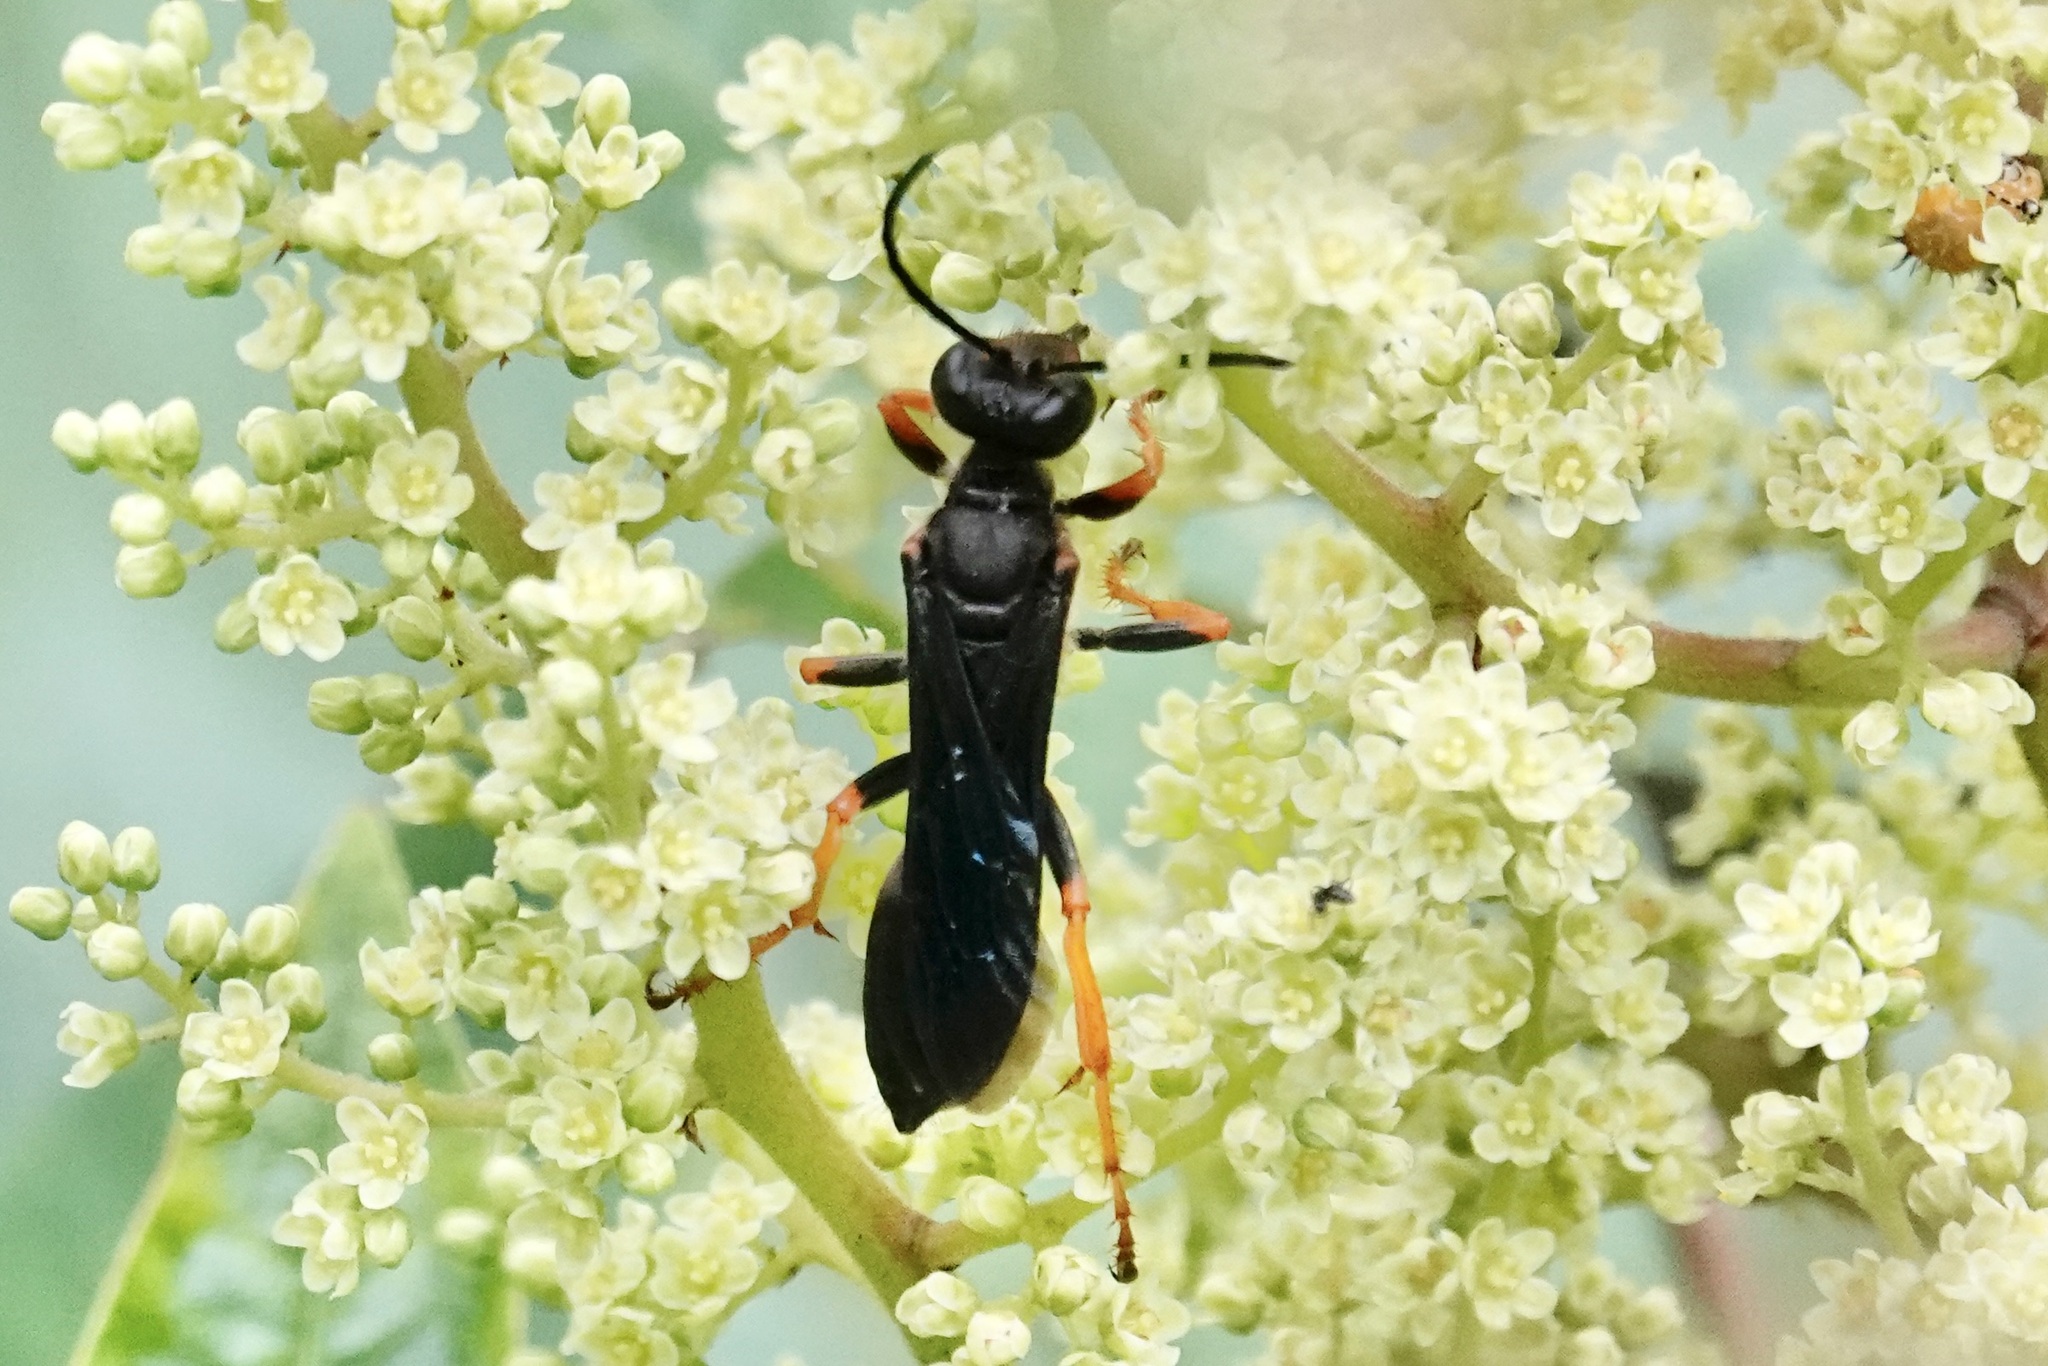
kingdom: Animalia
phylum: Arthropoda
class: Insecta
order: Hymenoptera
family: Sphecidae
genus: Sphex
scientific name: Sphex nudus
